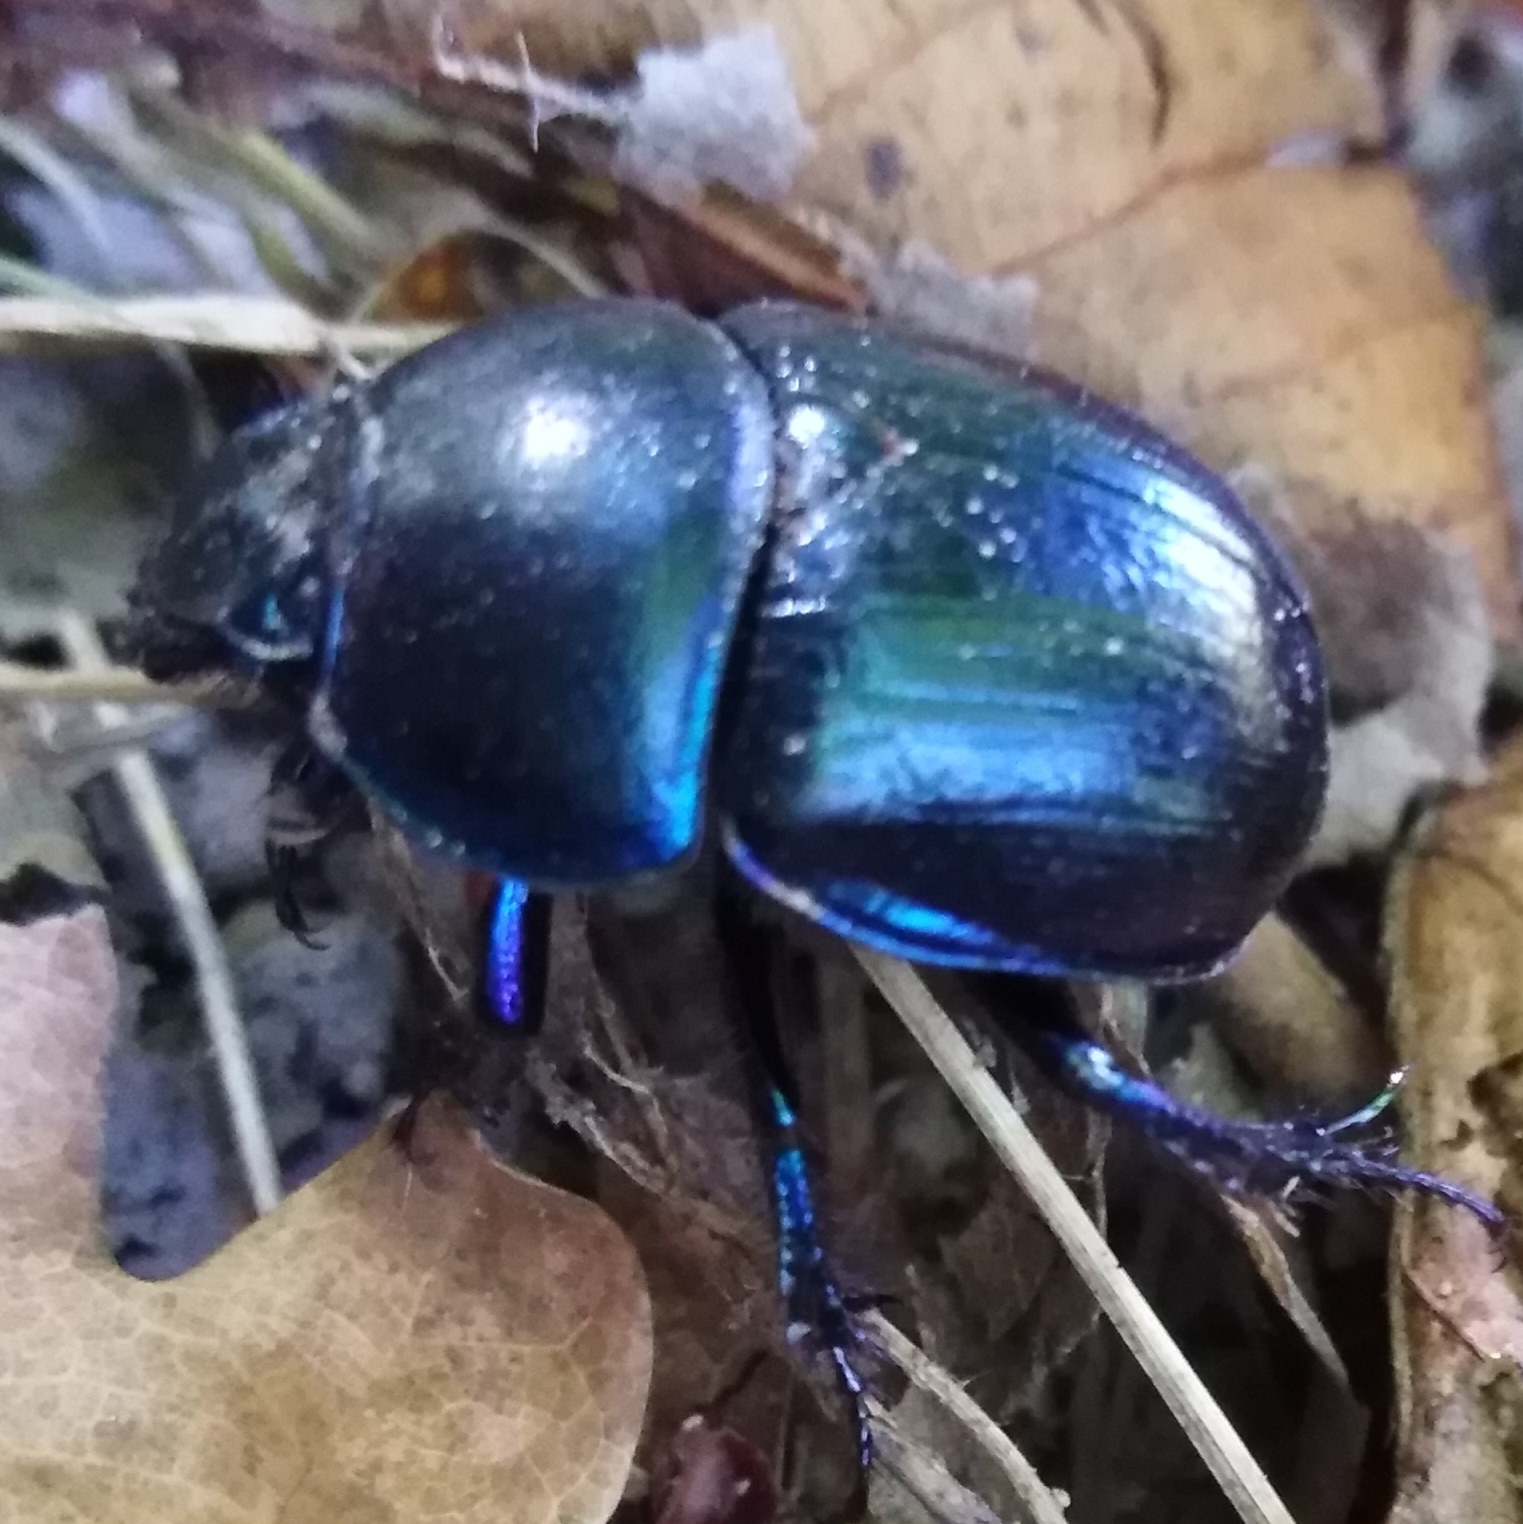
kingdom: Animalia
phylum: Arthropoda
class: Insecta
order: Coleoptera
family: Geotrupidae
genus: Anoplotrupes
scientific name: Anoplotrupes stercorosus
